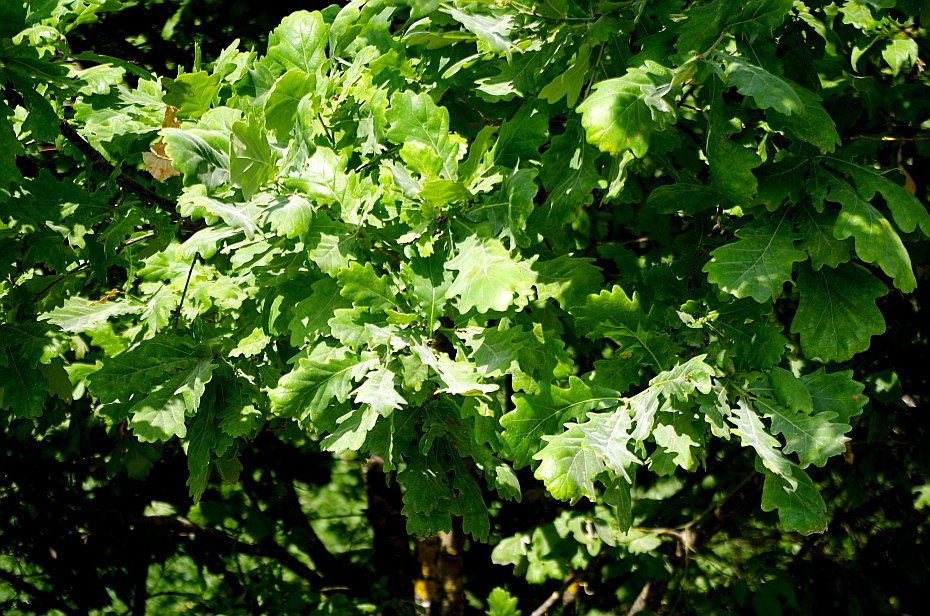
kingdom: Plantae
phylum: Tracheophyta
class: Magnoliopsida
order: Fagales
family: Fagaceae
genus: Quercus
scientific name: Quercus robur
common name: Pedunculate oak
